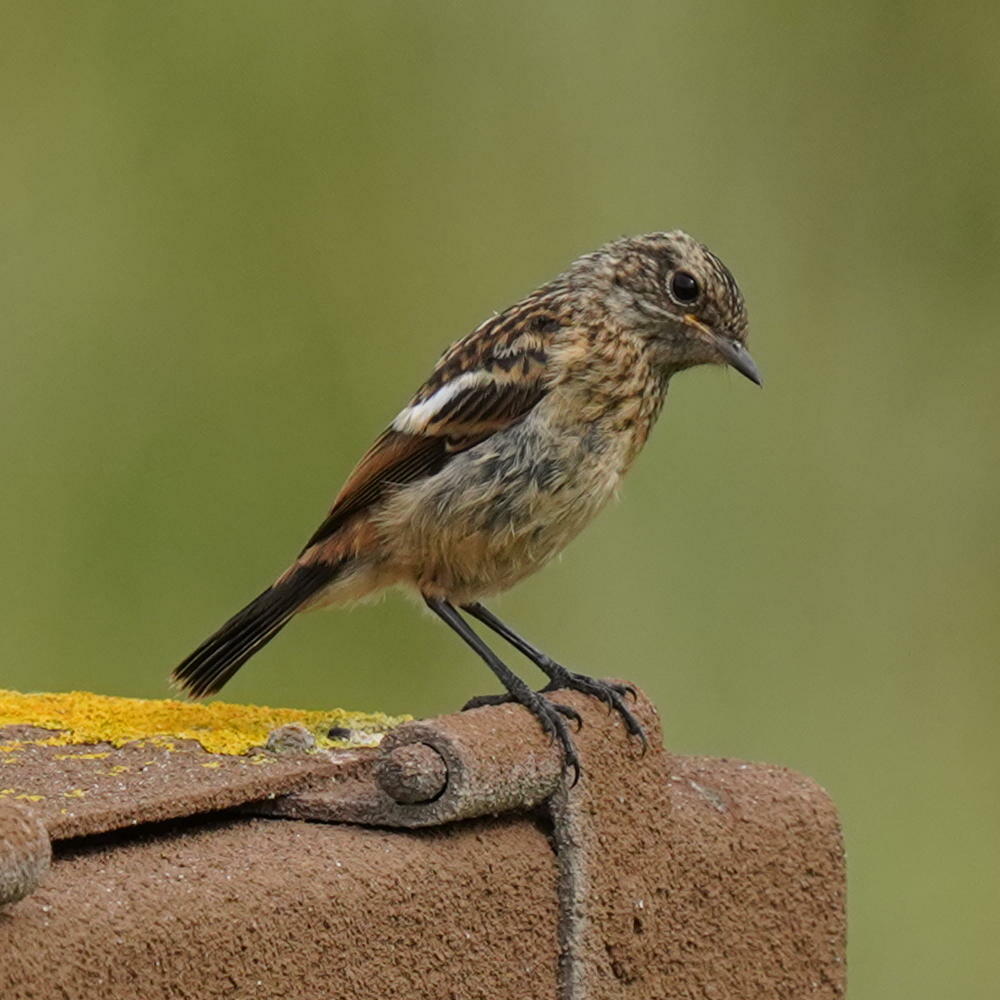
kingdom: Animalia
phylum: Chordata
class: Aves
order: Passeriformes
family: Muscicapidae
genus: Saxicola
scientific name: Saxicola rubicola
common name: European stonechat
